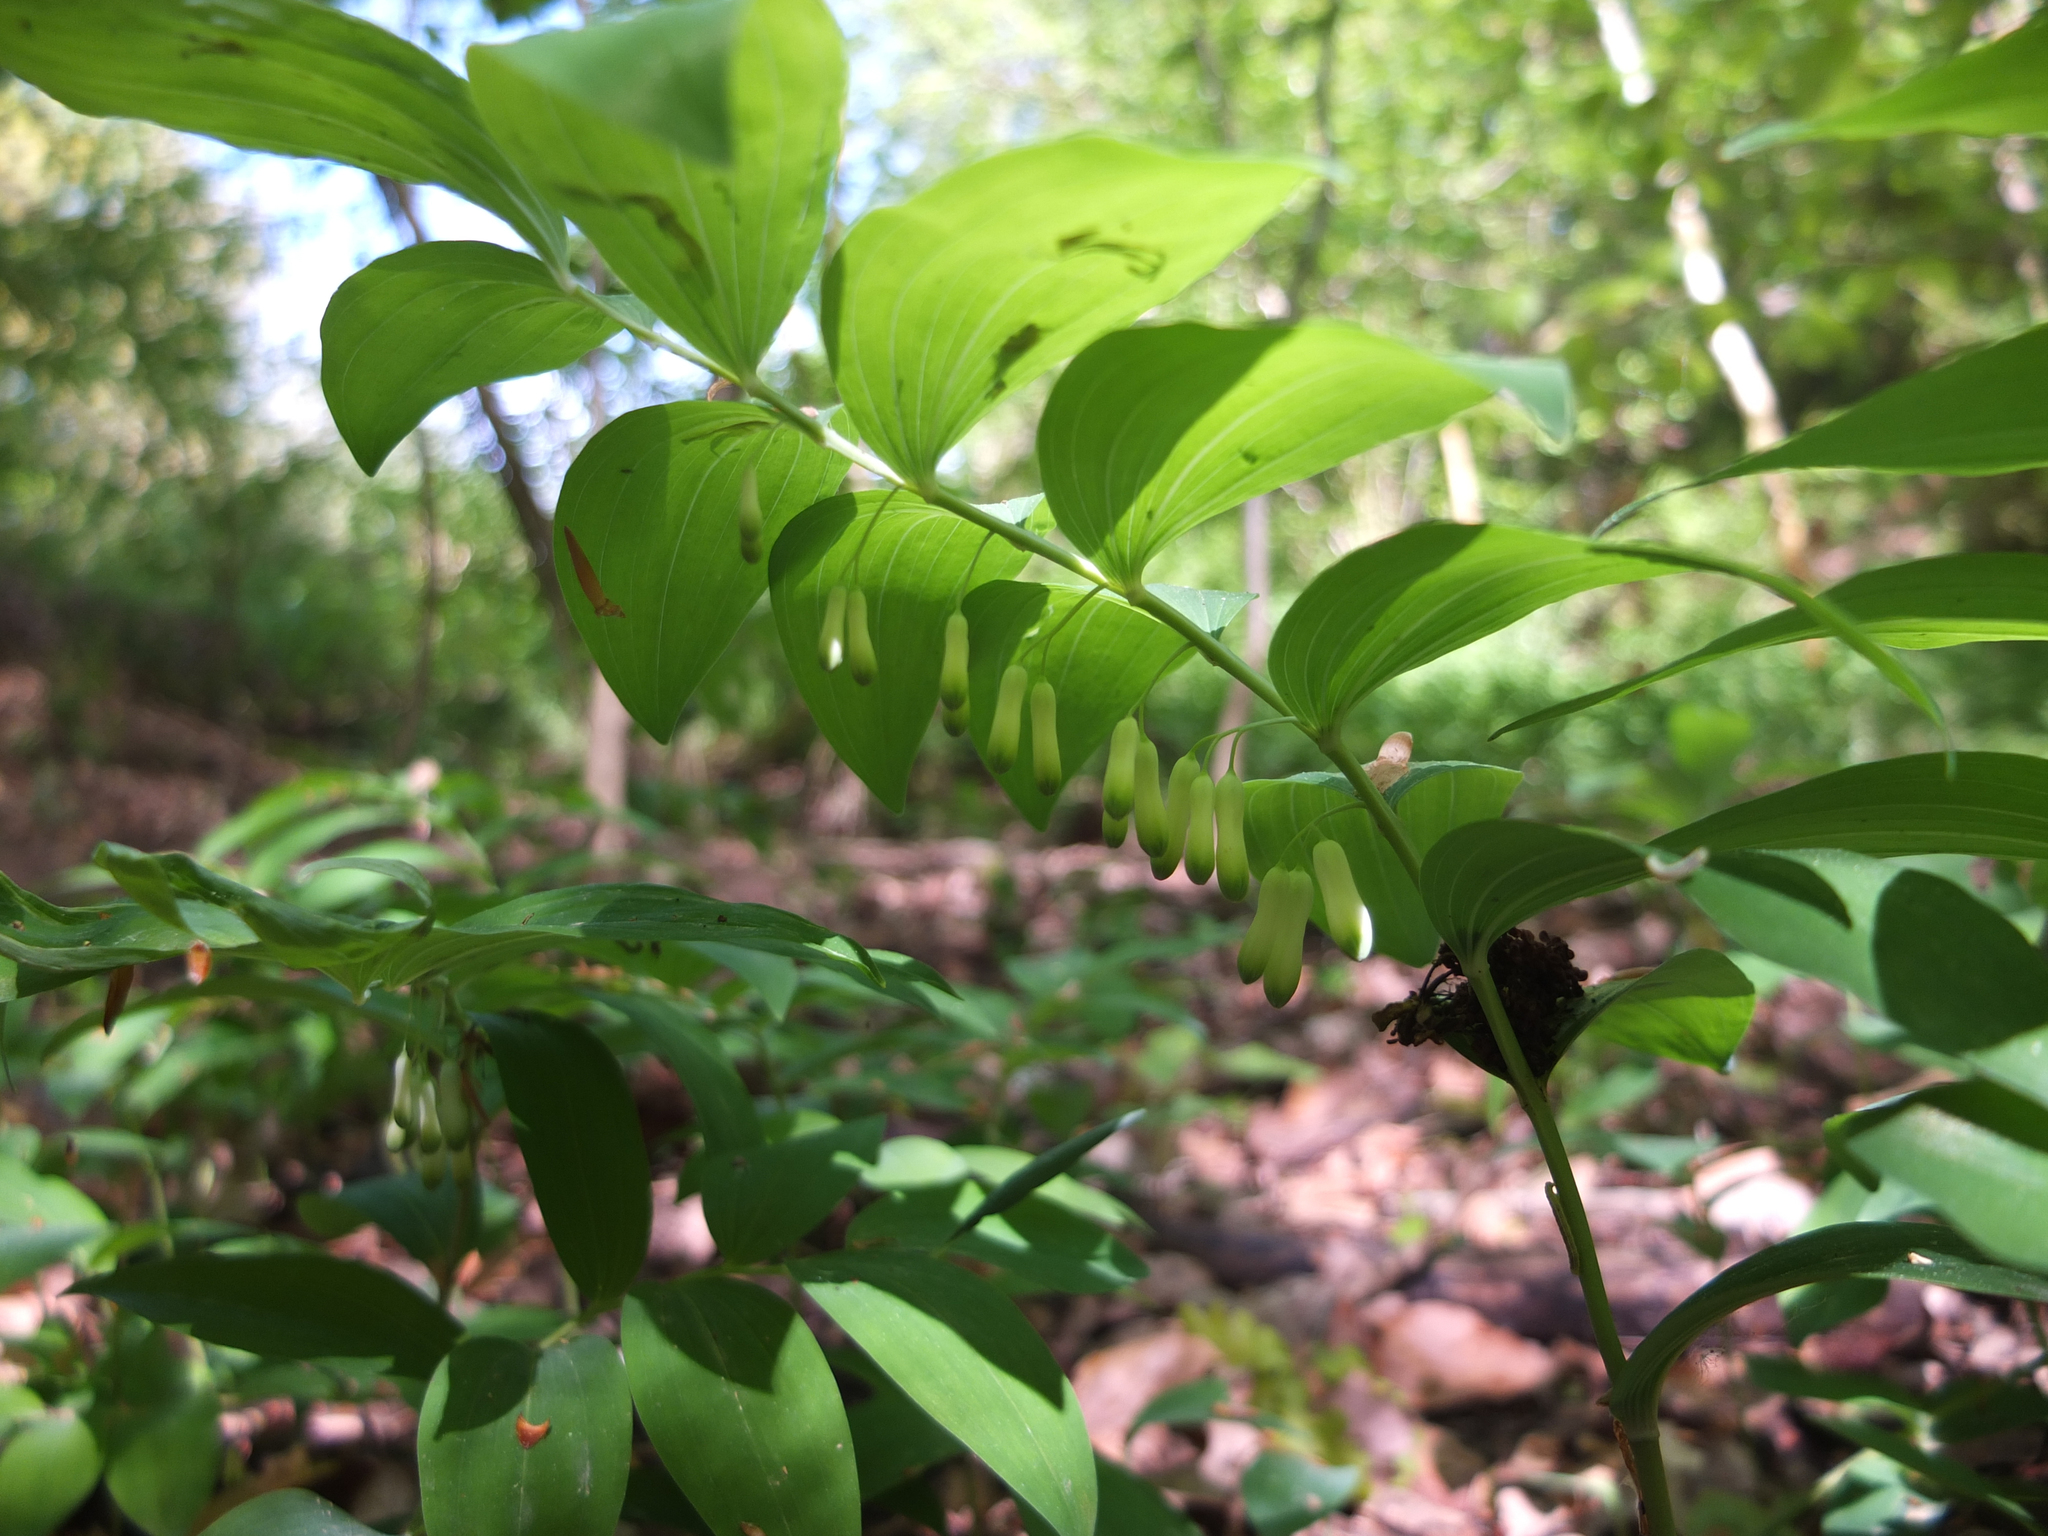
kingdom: Plantae
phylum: Tracheophyta
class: Liliopsida
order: Asparagales
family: Asparagaceae
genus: Polygonatum
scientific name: Polygonatum multiflorum
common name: Solomon's-seal
